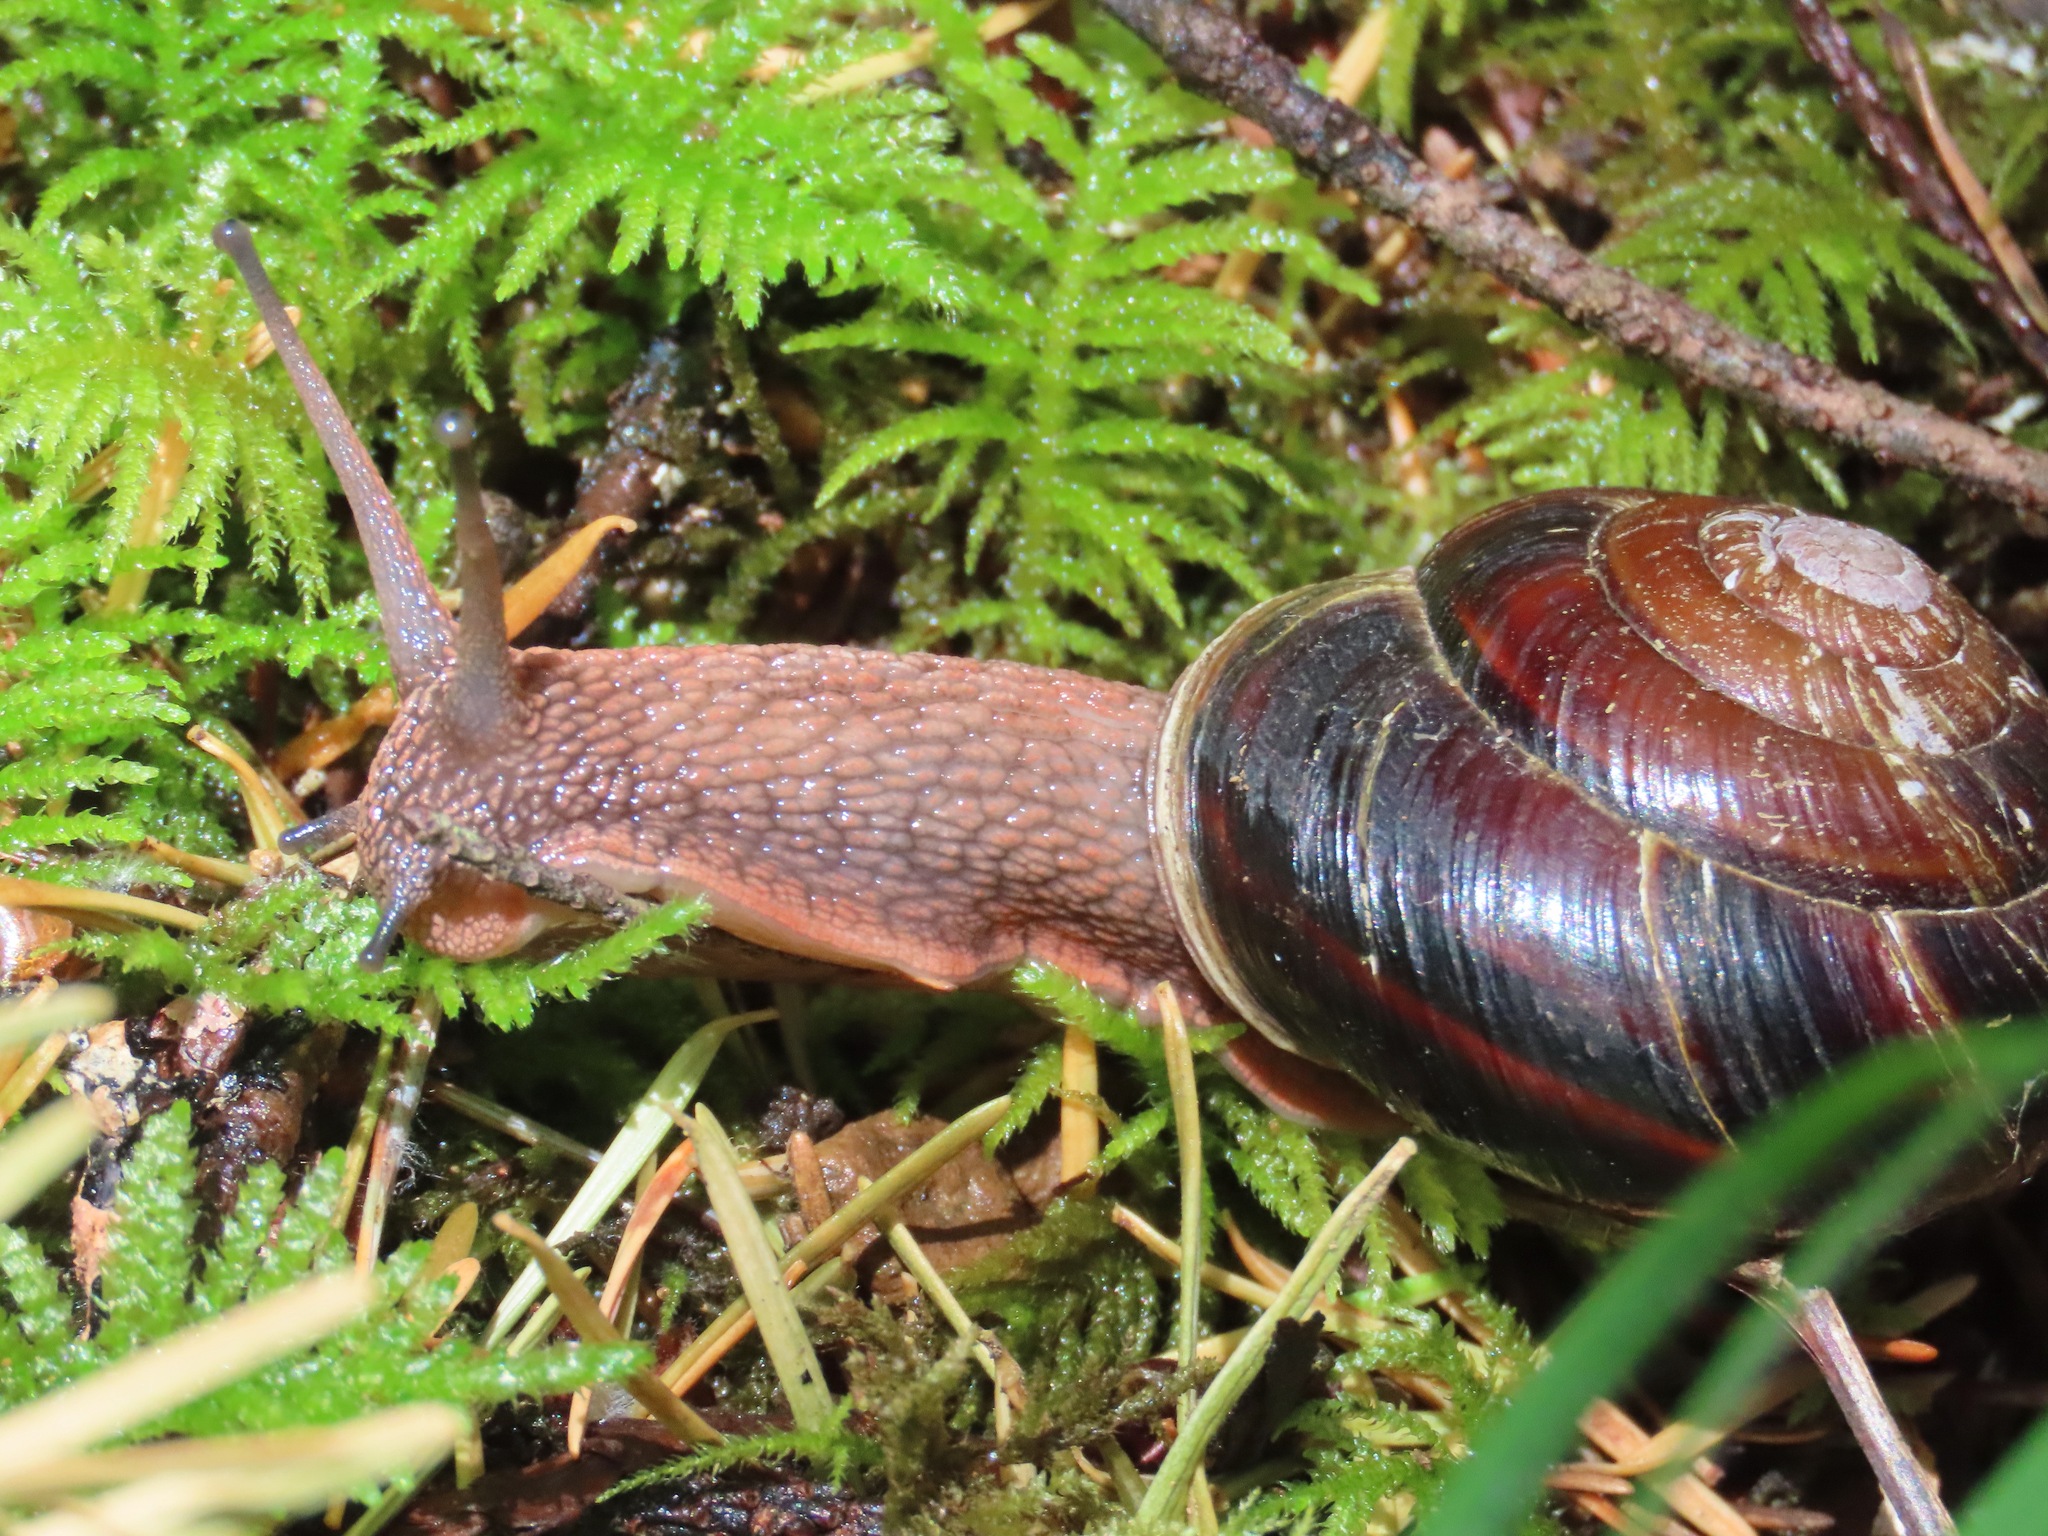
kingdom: Animalia
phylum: Mollusca
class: Gastropoda
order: Stylommatophora
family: Xanthonychidae
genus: Monadenia
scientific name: Monadenia fidelis
